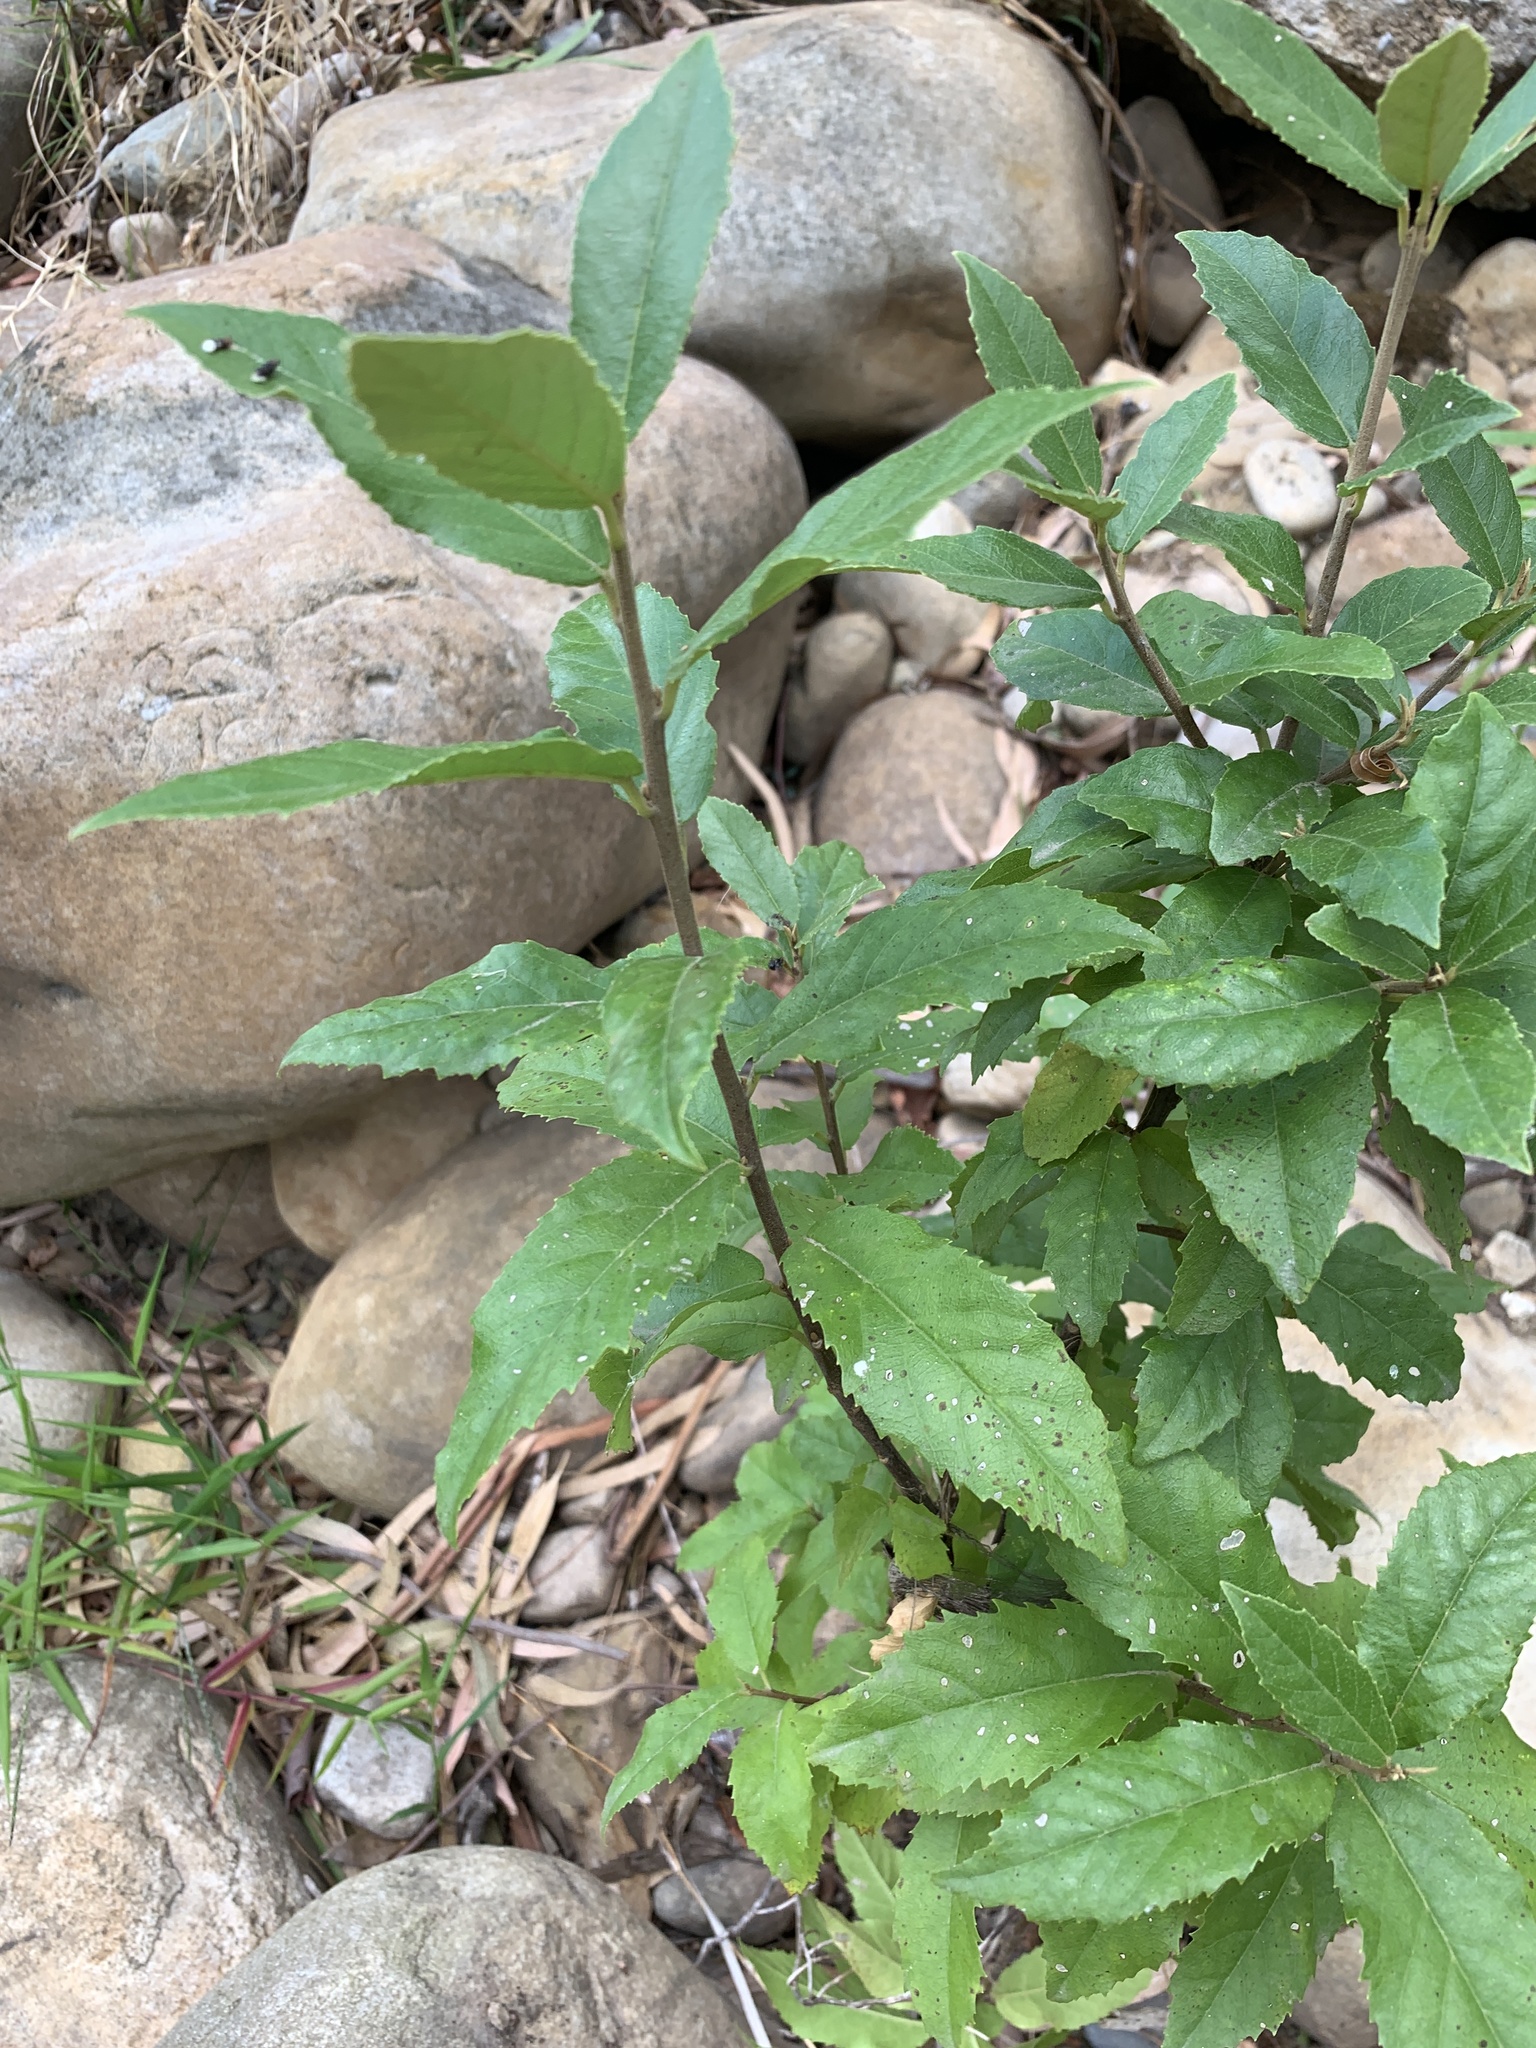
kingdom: Plantae
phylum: Tracheophyta
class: Magnoliopsida
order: Malpighiales
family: Achariaceae
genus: Kiggelaria
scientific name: Kiggelaria africana
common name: Wild peach
